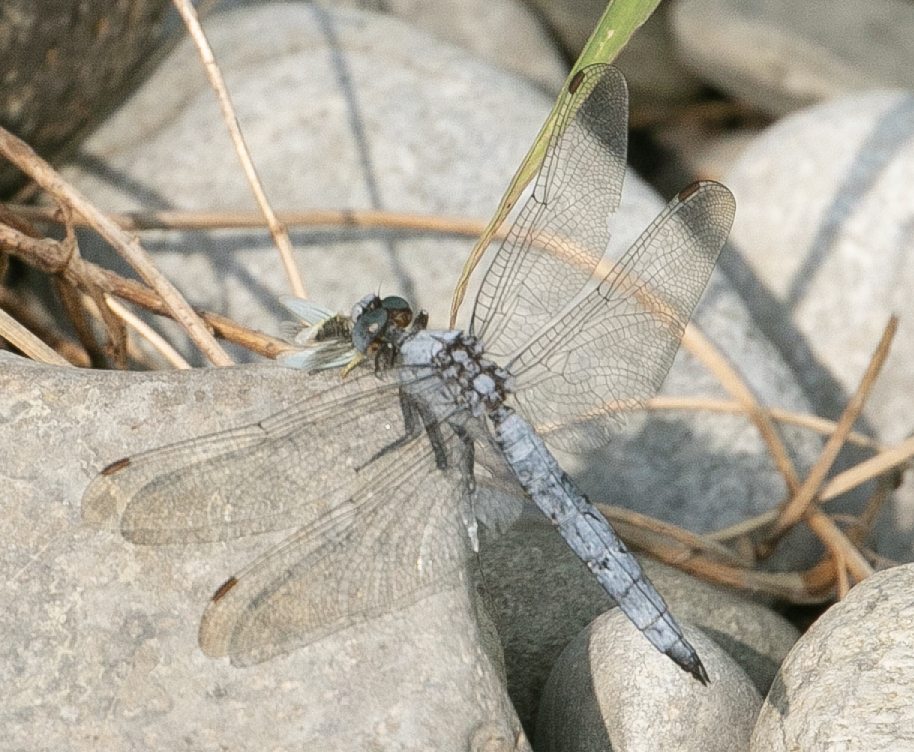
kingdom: Animalia
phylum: Arthropoda
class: Insecta
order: Odonata
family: Libellulidae
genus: Orthetrum
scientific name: Orthetrum brunneum
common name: Southern skimmer
